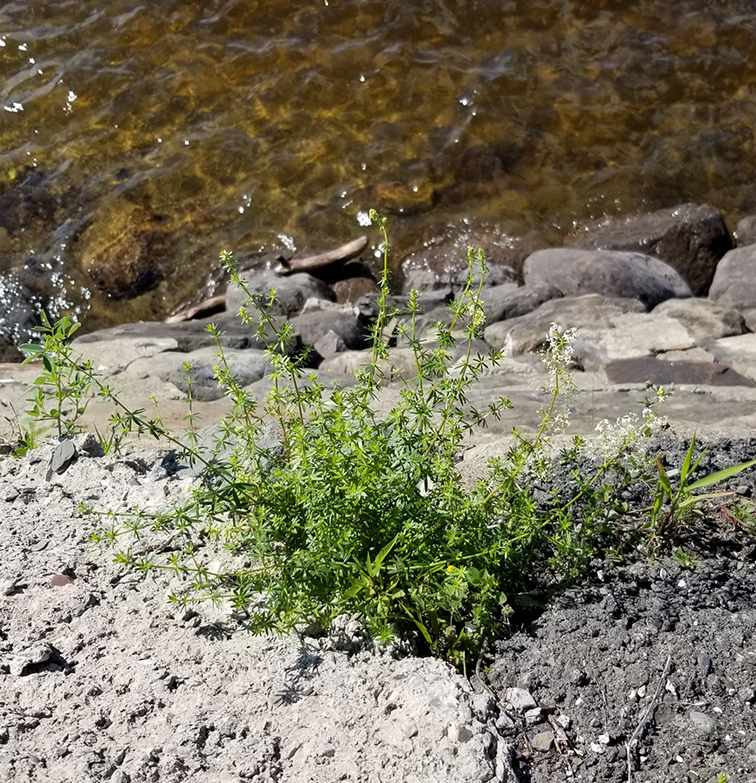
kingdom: Plantae
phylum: Tracheophyta
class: Magnoliopsida
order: Gentianales
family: Rubiaceae
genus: Galium
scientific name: Galium mollugo
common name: Hedge bedstraw
